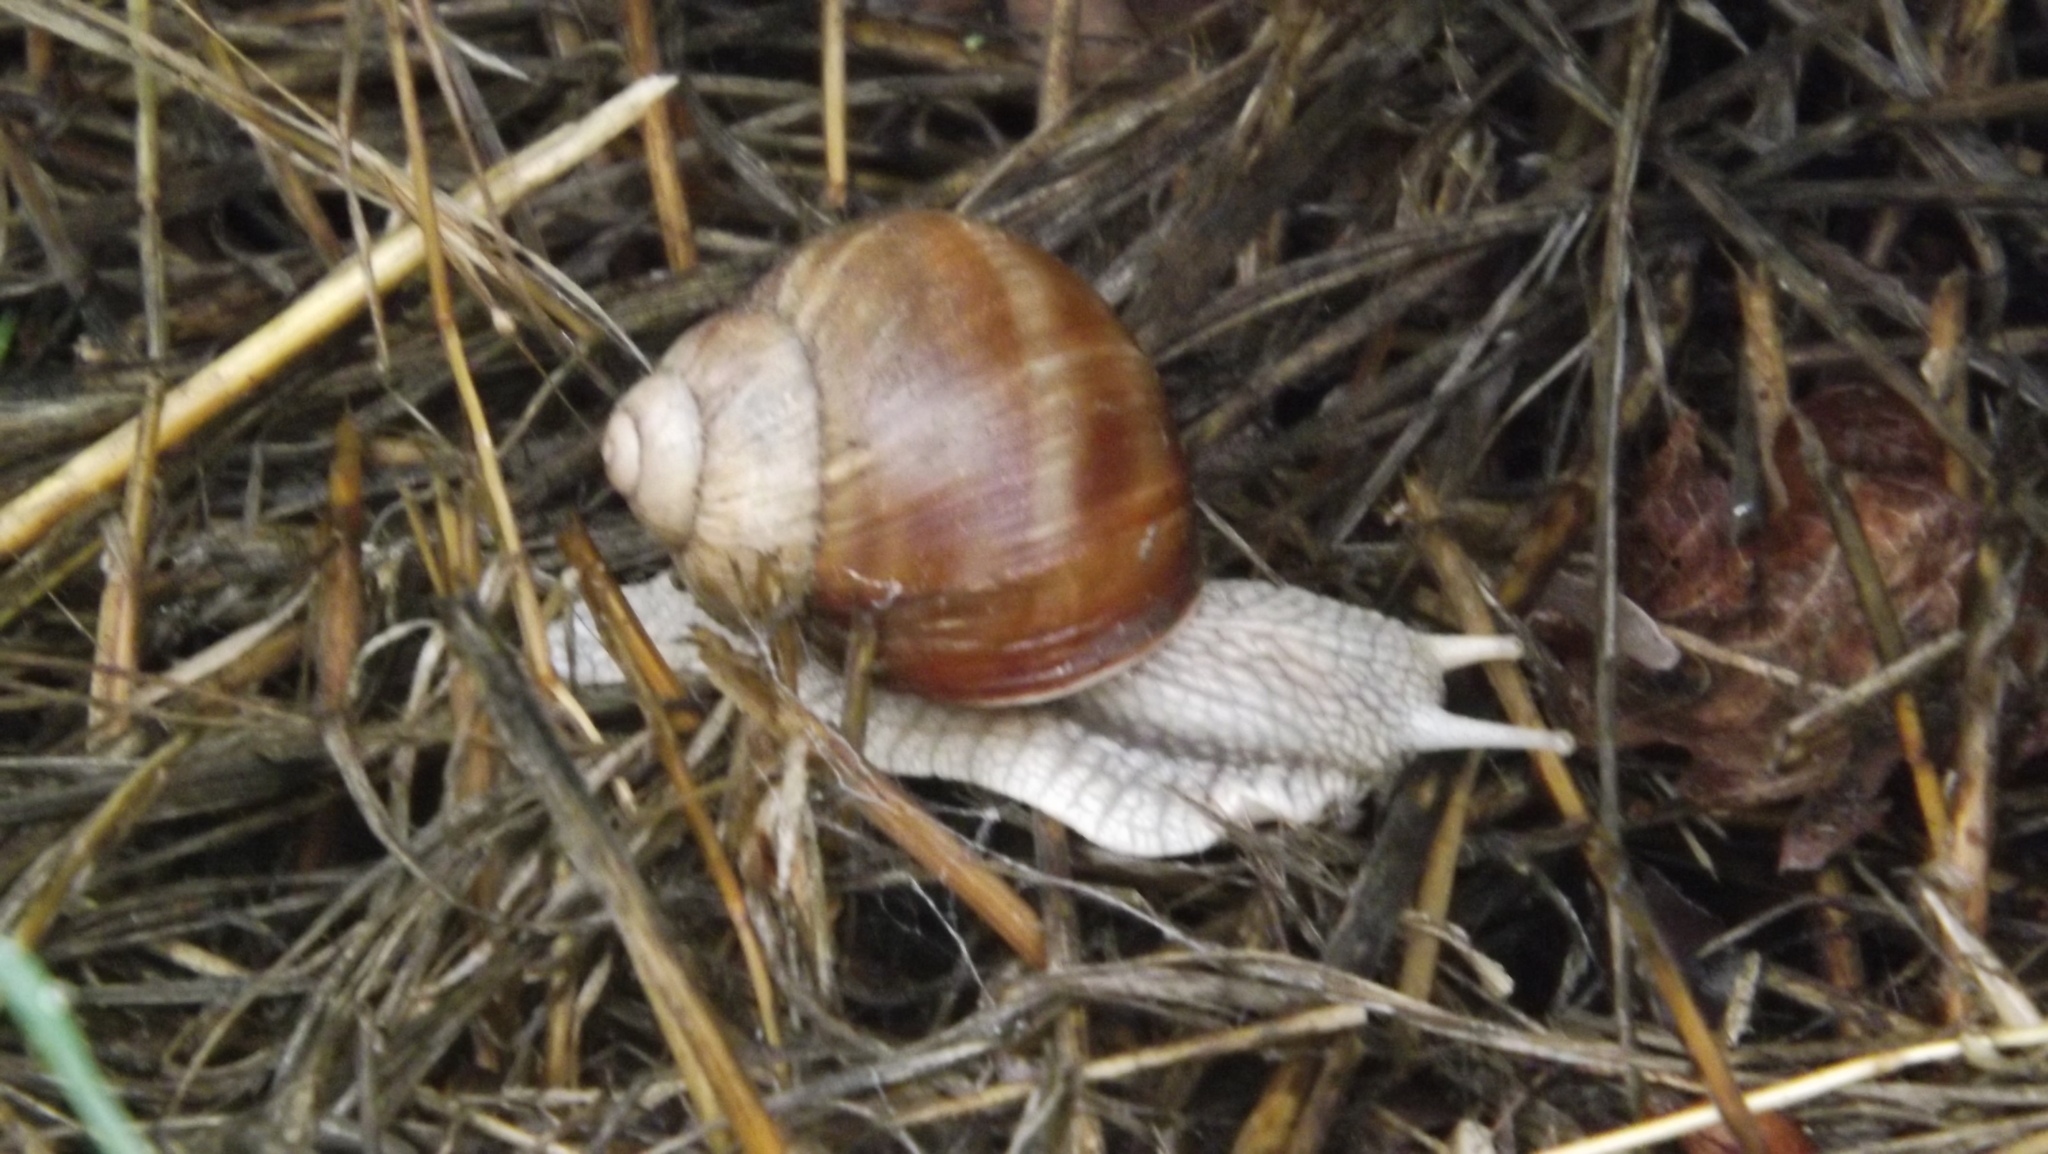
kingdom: Animalia
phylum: Mollusca
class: Gastropoda
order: Stylommatophora
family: Helicidae
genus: Helix
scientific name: Helix pomatia
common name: Roman snail
